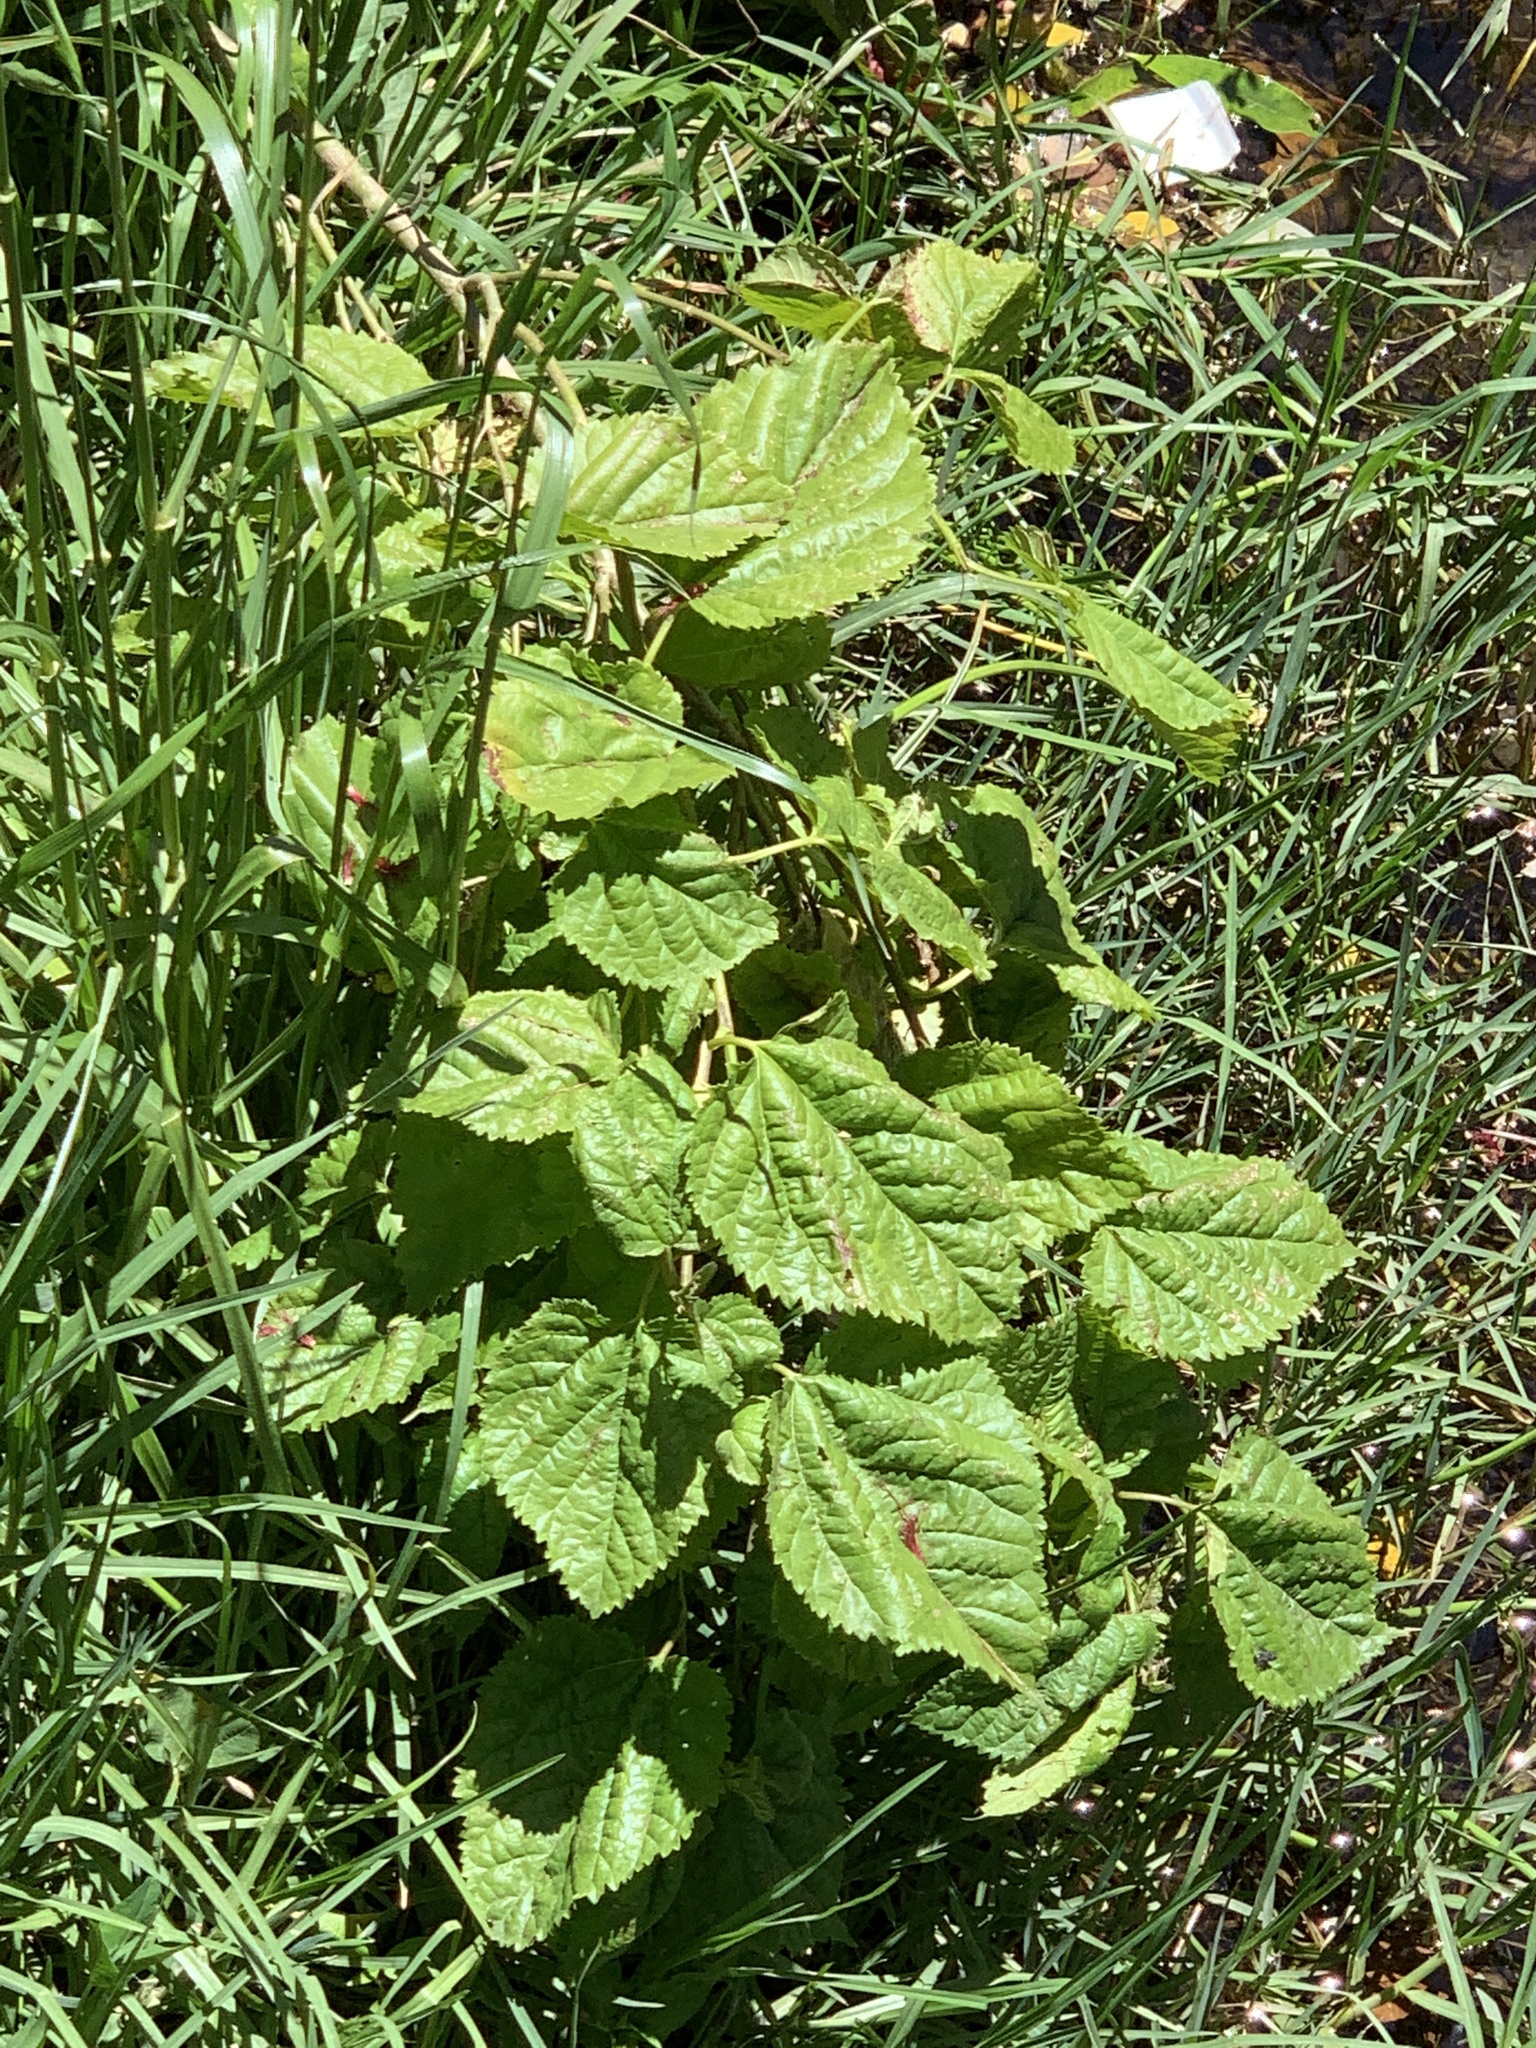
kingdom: Plantae
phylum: Tracheophyta
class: Magnoliopsida
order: Rosales
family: Moraceae
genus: Morus
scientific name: Morus alba
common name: White mulberry
